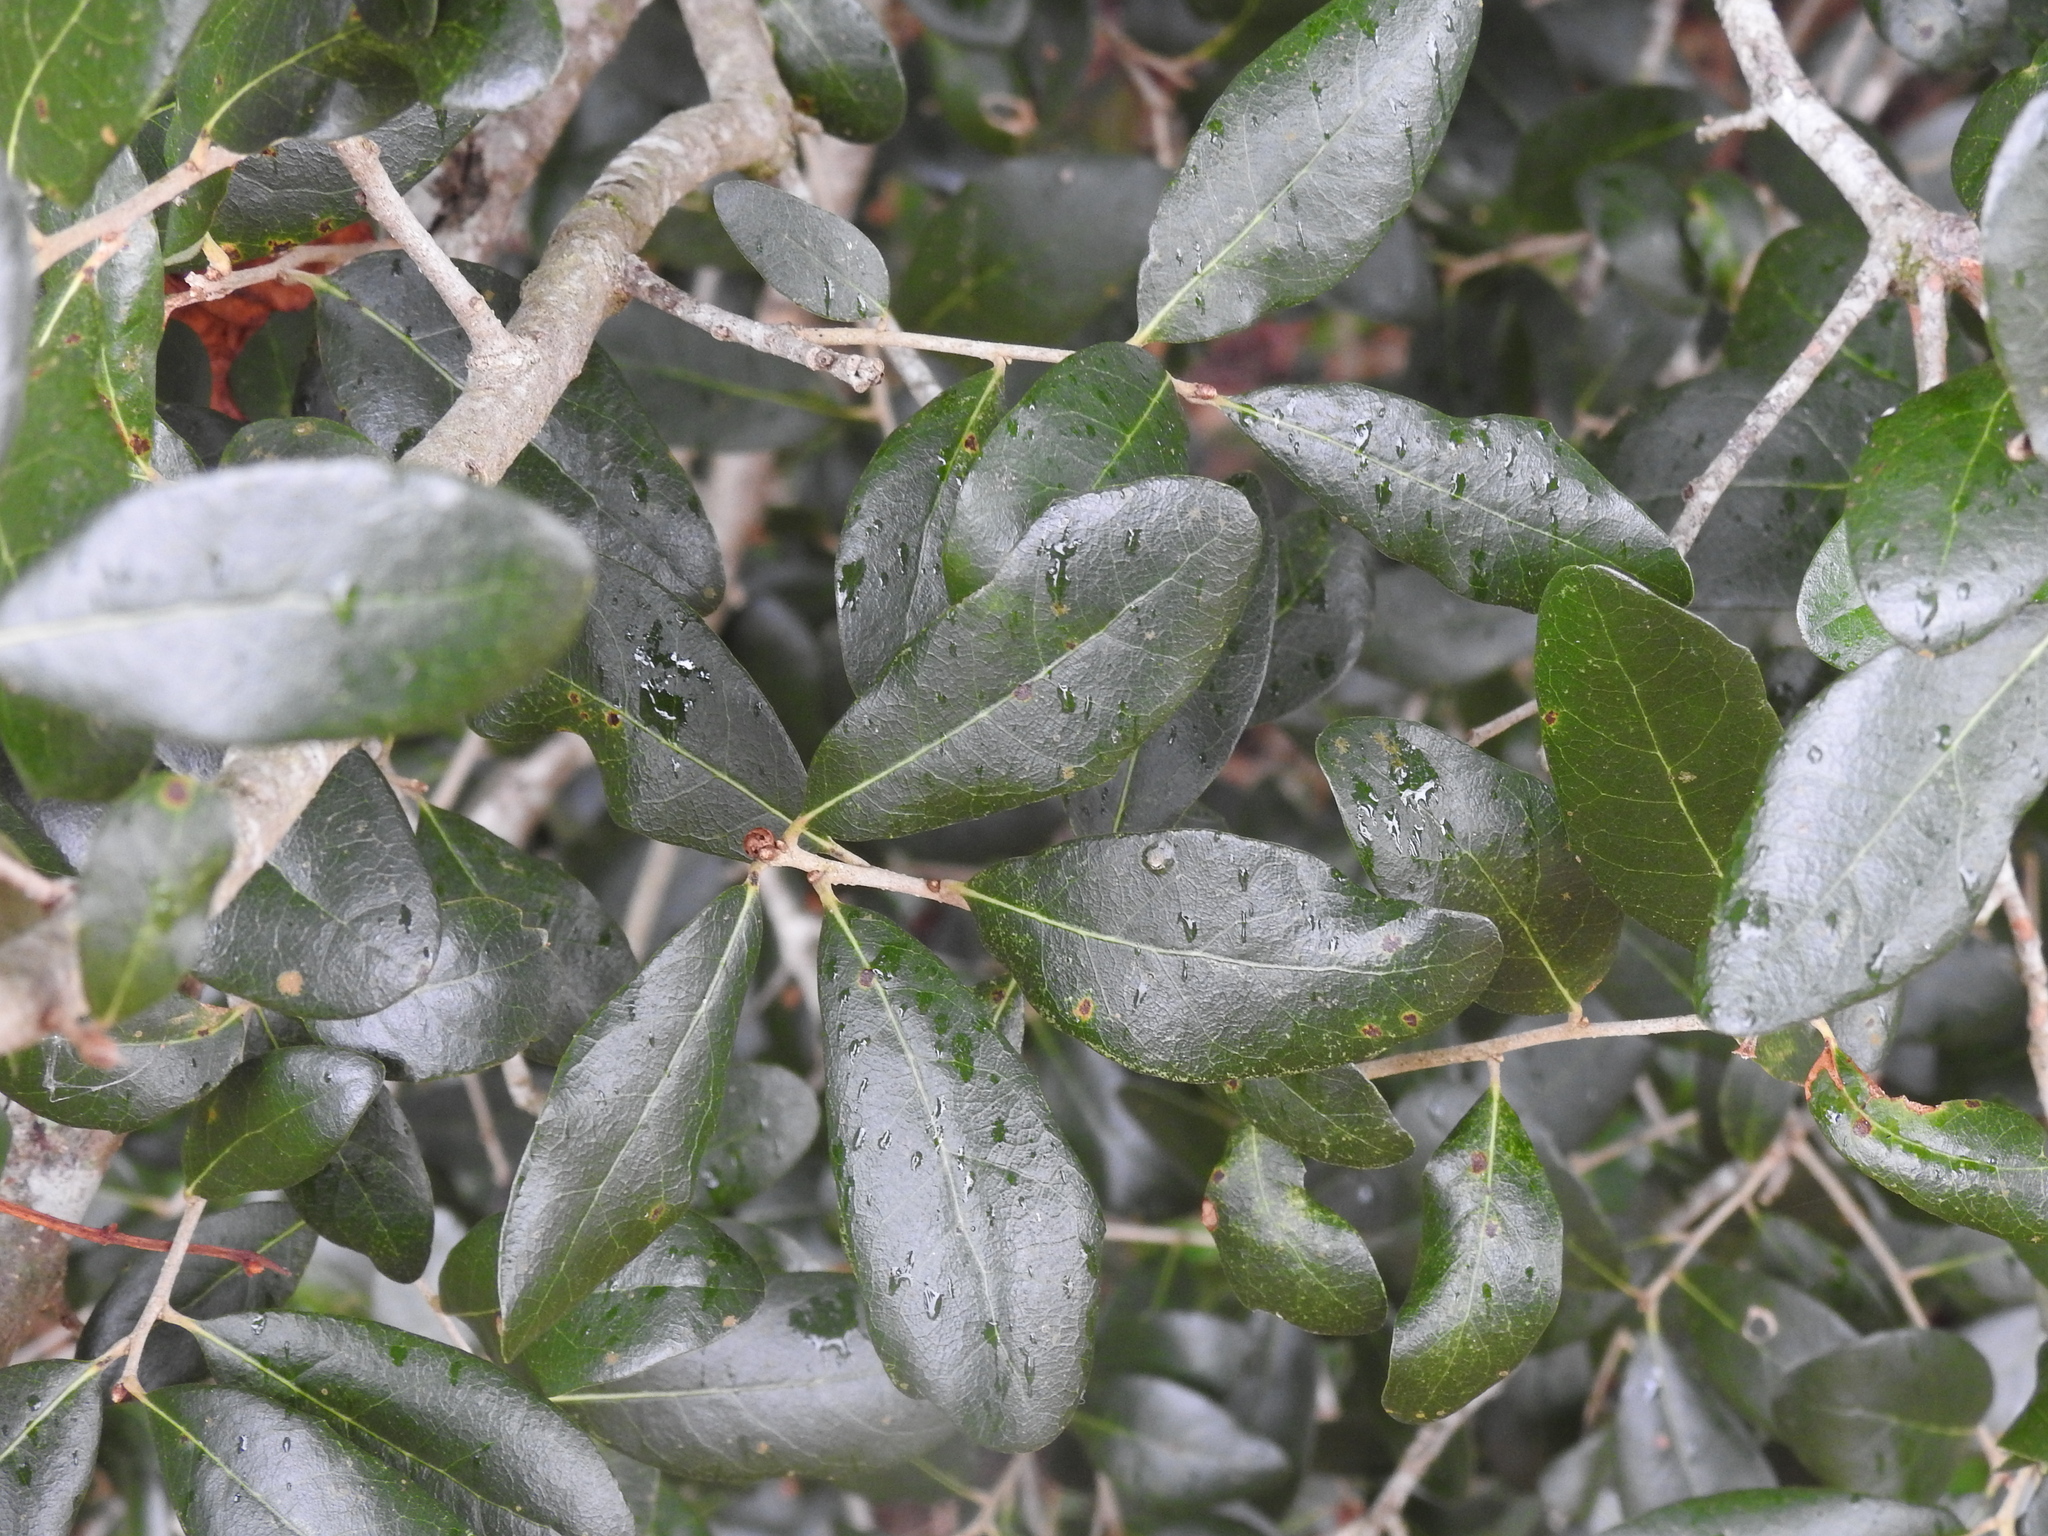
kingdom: Plantae
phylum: Tracheophyta
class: Magnoliopsida
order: Fagales
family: Fagaceae
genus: Quercus
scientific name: Quercus virginiana
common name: Southern live oak
